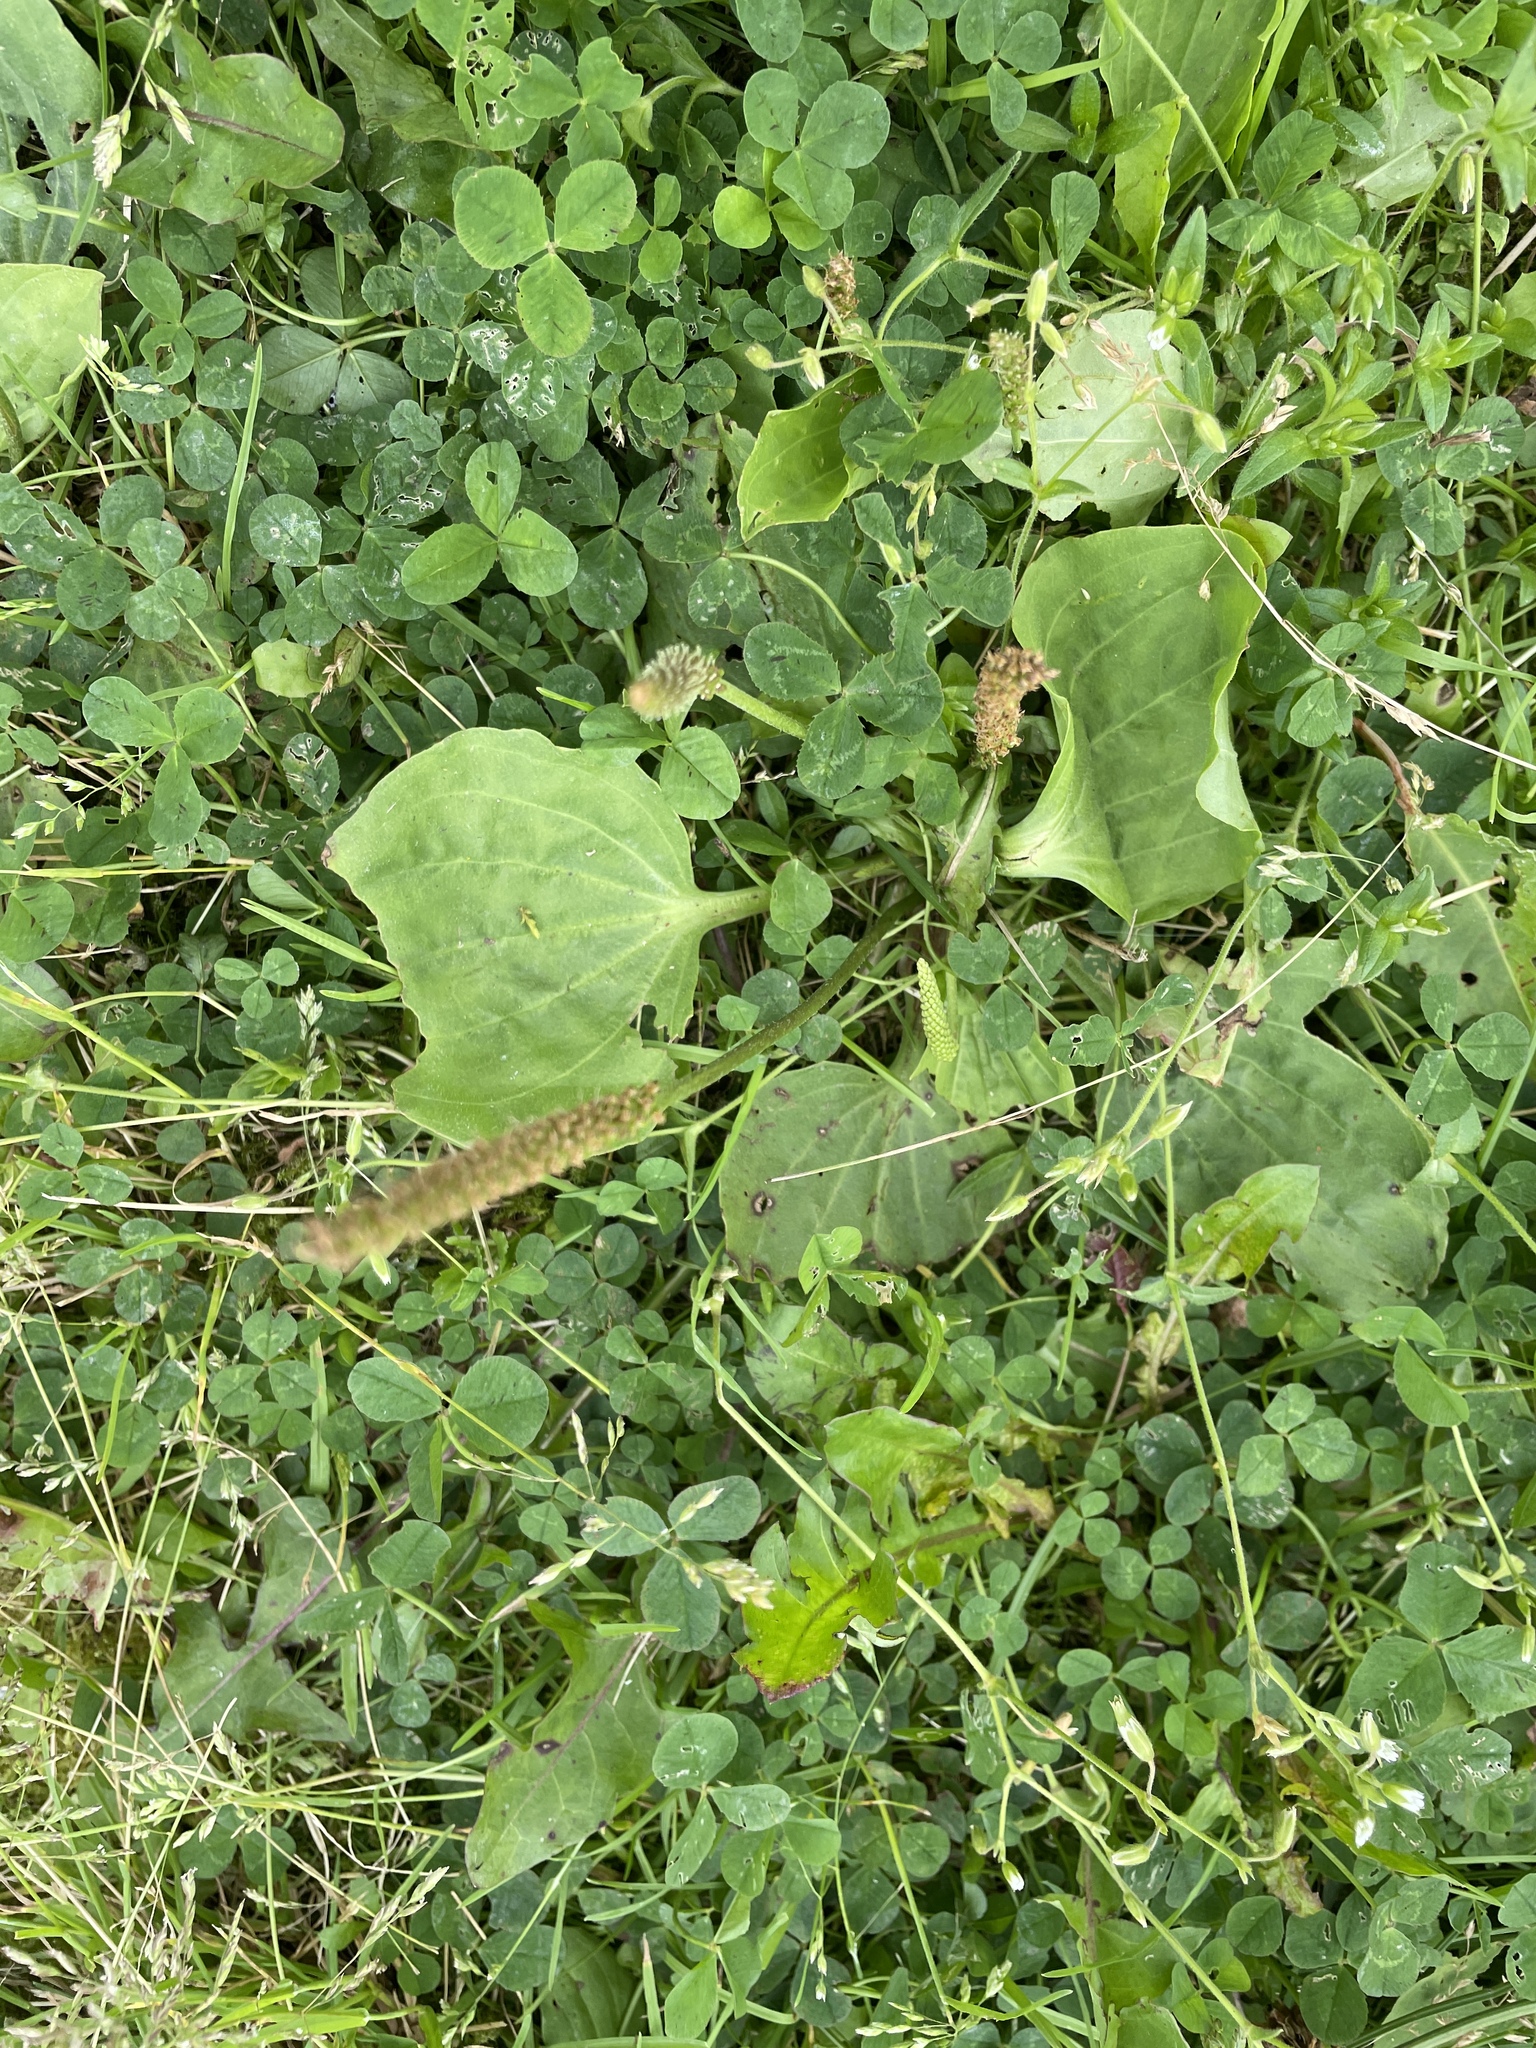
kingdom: Plantae
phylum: Tracheophyta
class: Magnoliopsida
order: Lamiales
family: Plantaginaceae
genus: Plantago
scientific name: Plantago major
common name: Common plantain
